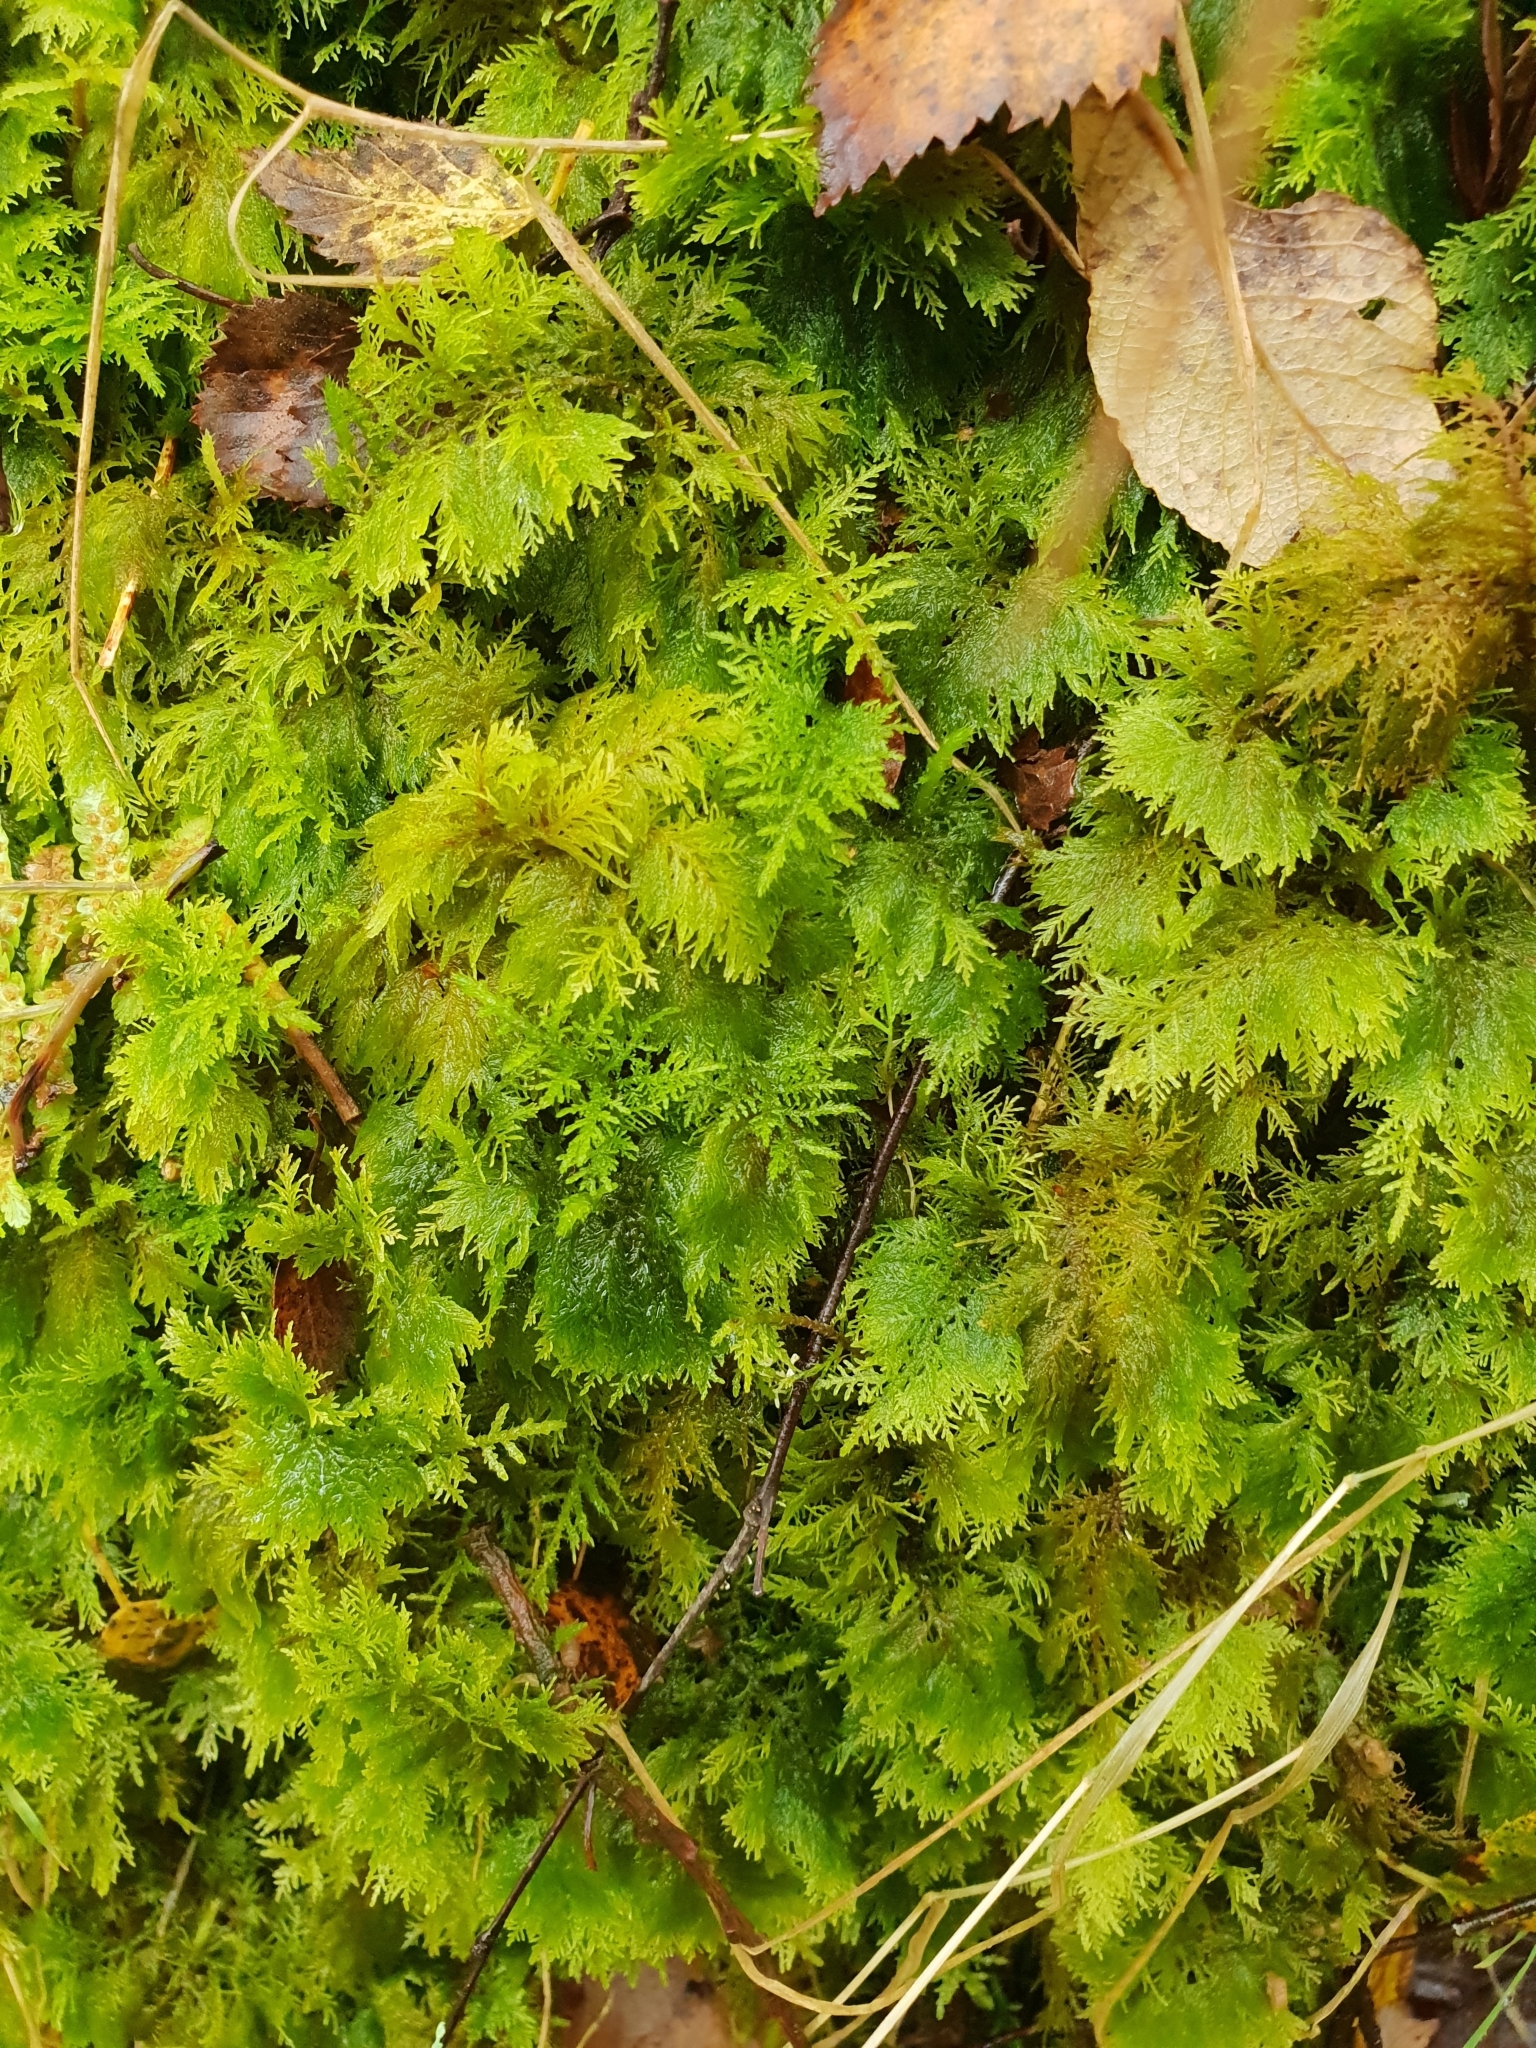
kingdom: Plantae
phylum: Bryophyta
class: Bryopsida
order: Hypnales
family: Thuidiaceae
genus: Thuidium
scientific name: Thuidium tamariscinum
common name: Common tamarisk-moss
